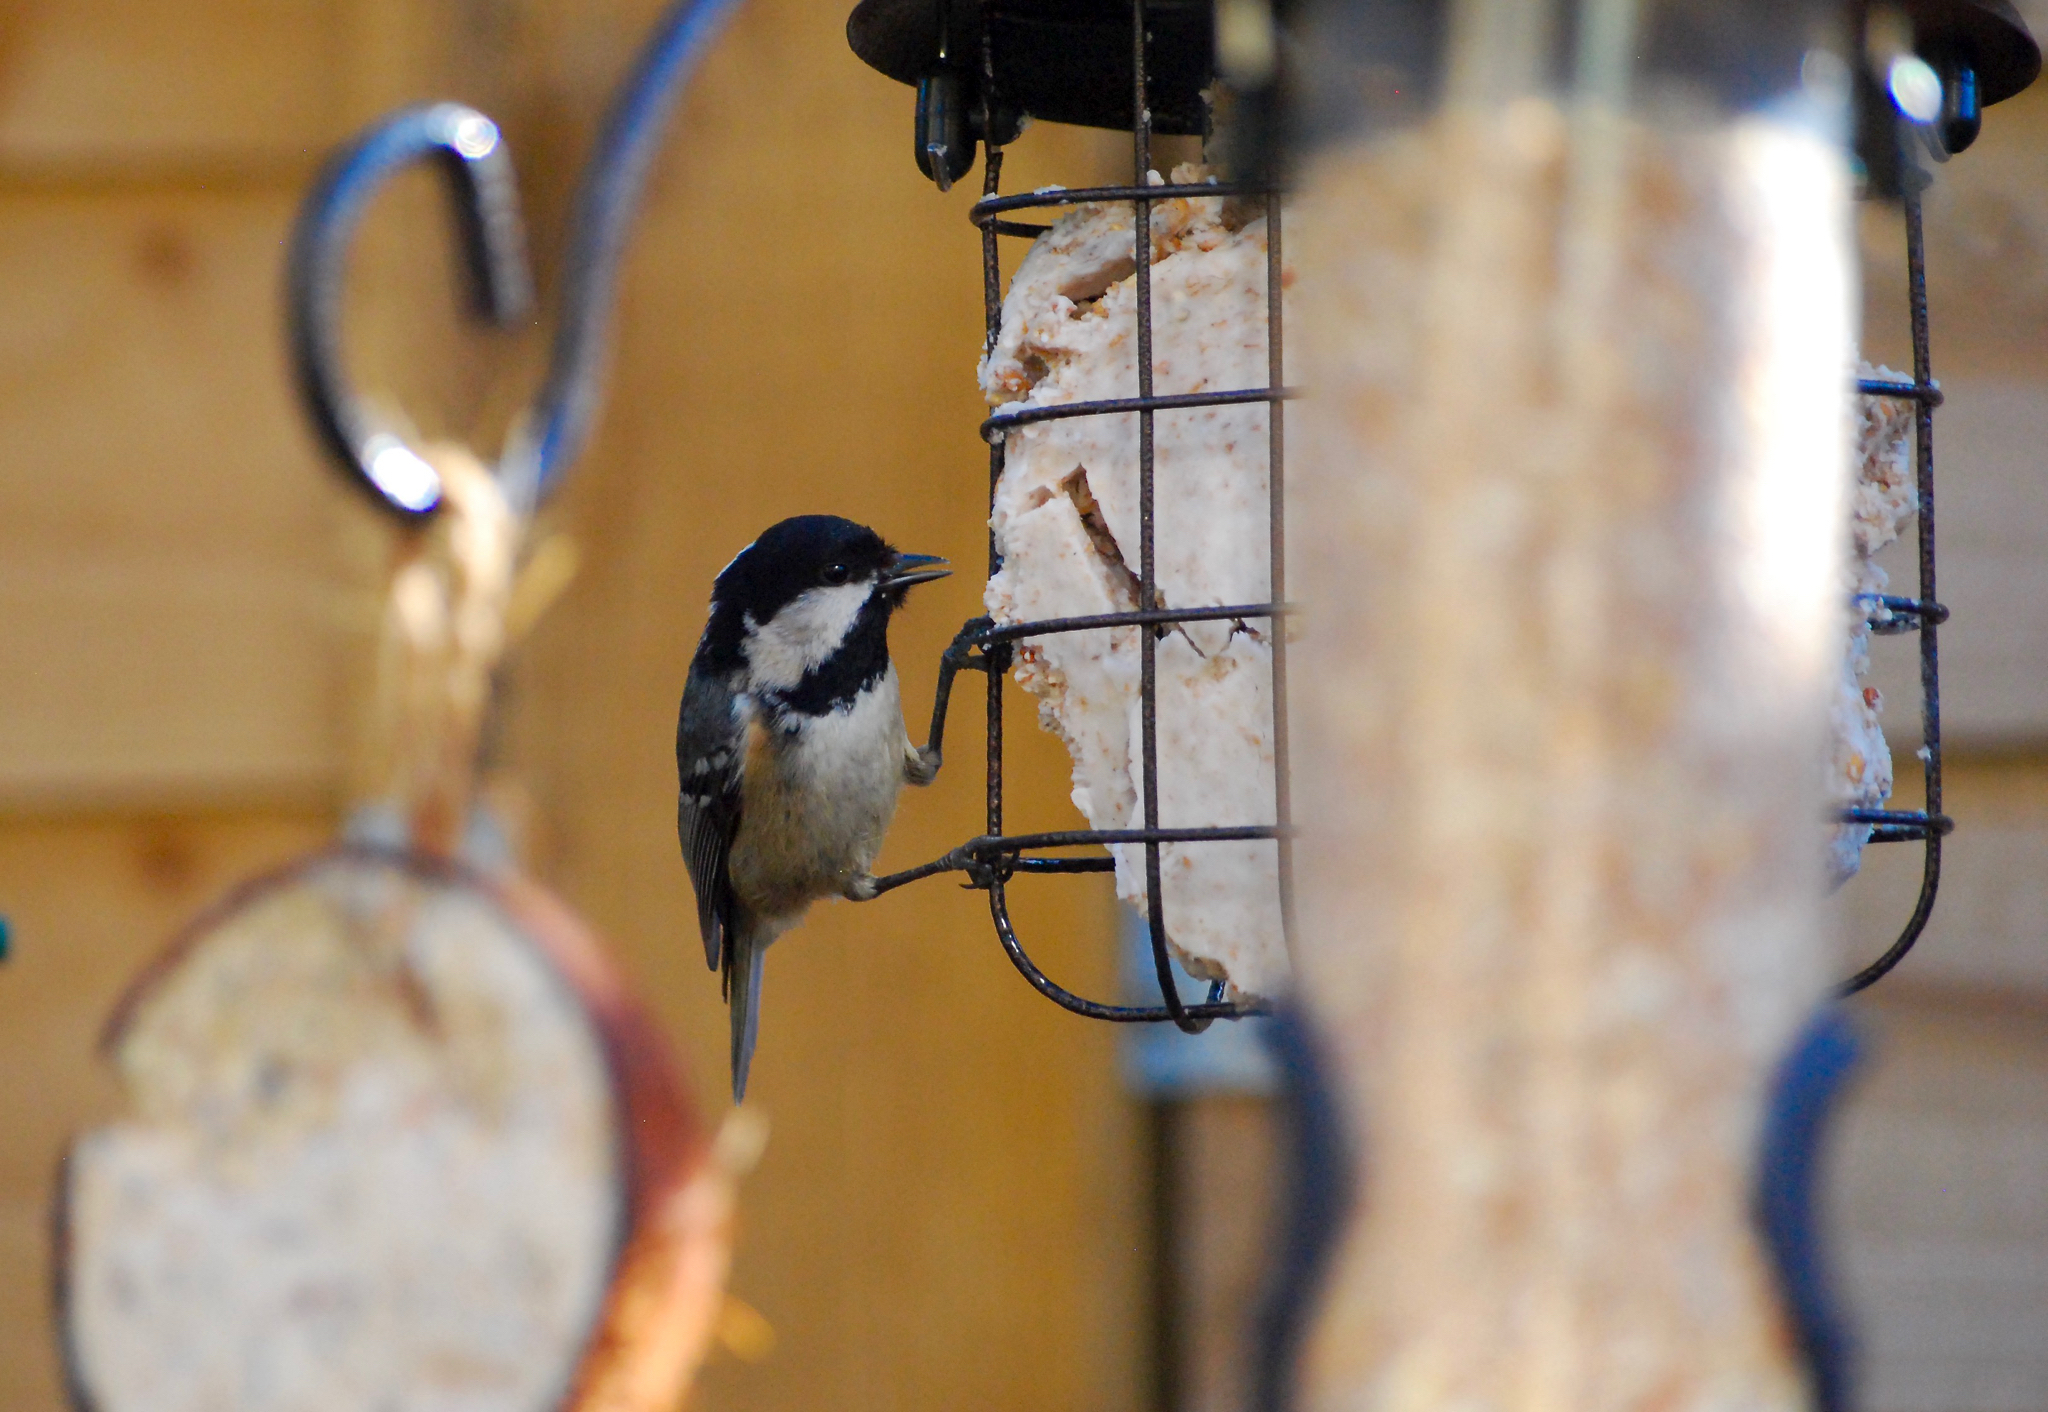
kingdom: Animalia
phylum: Chordata
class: Aves
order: Passeriformes
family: Paridae
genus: Periparus
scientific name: Periparus ater
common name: Coal tit
